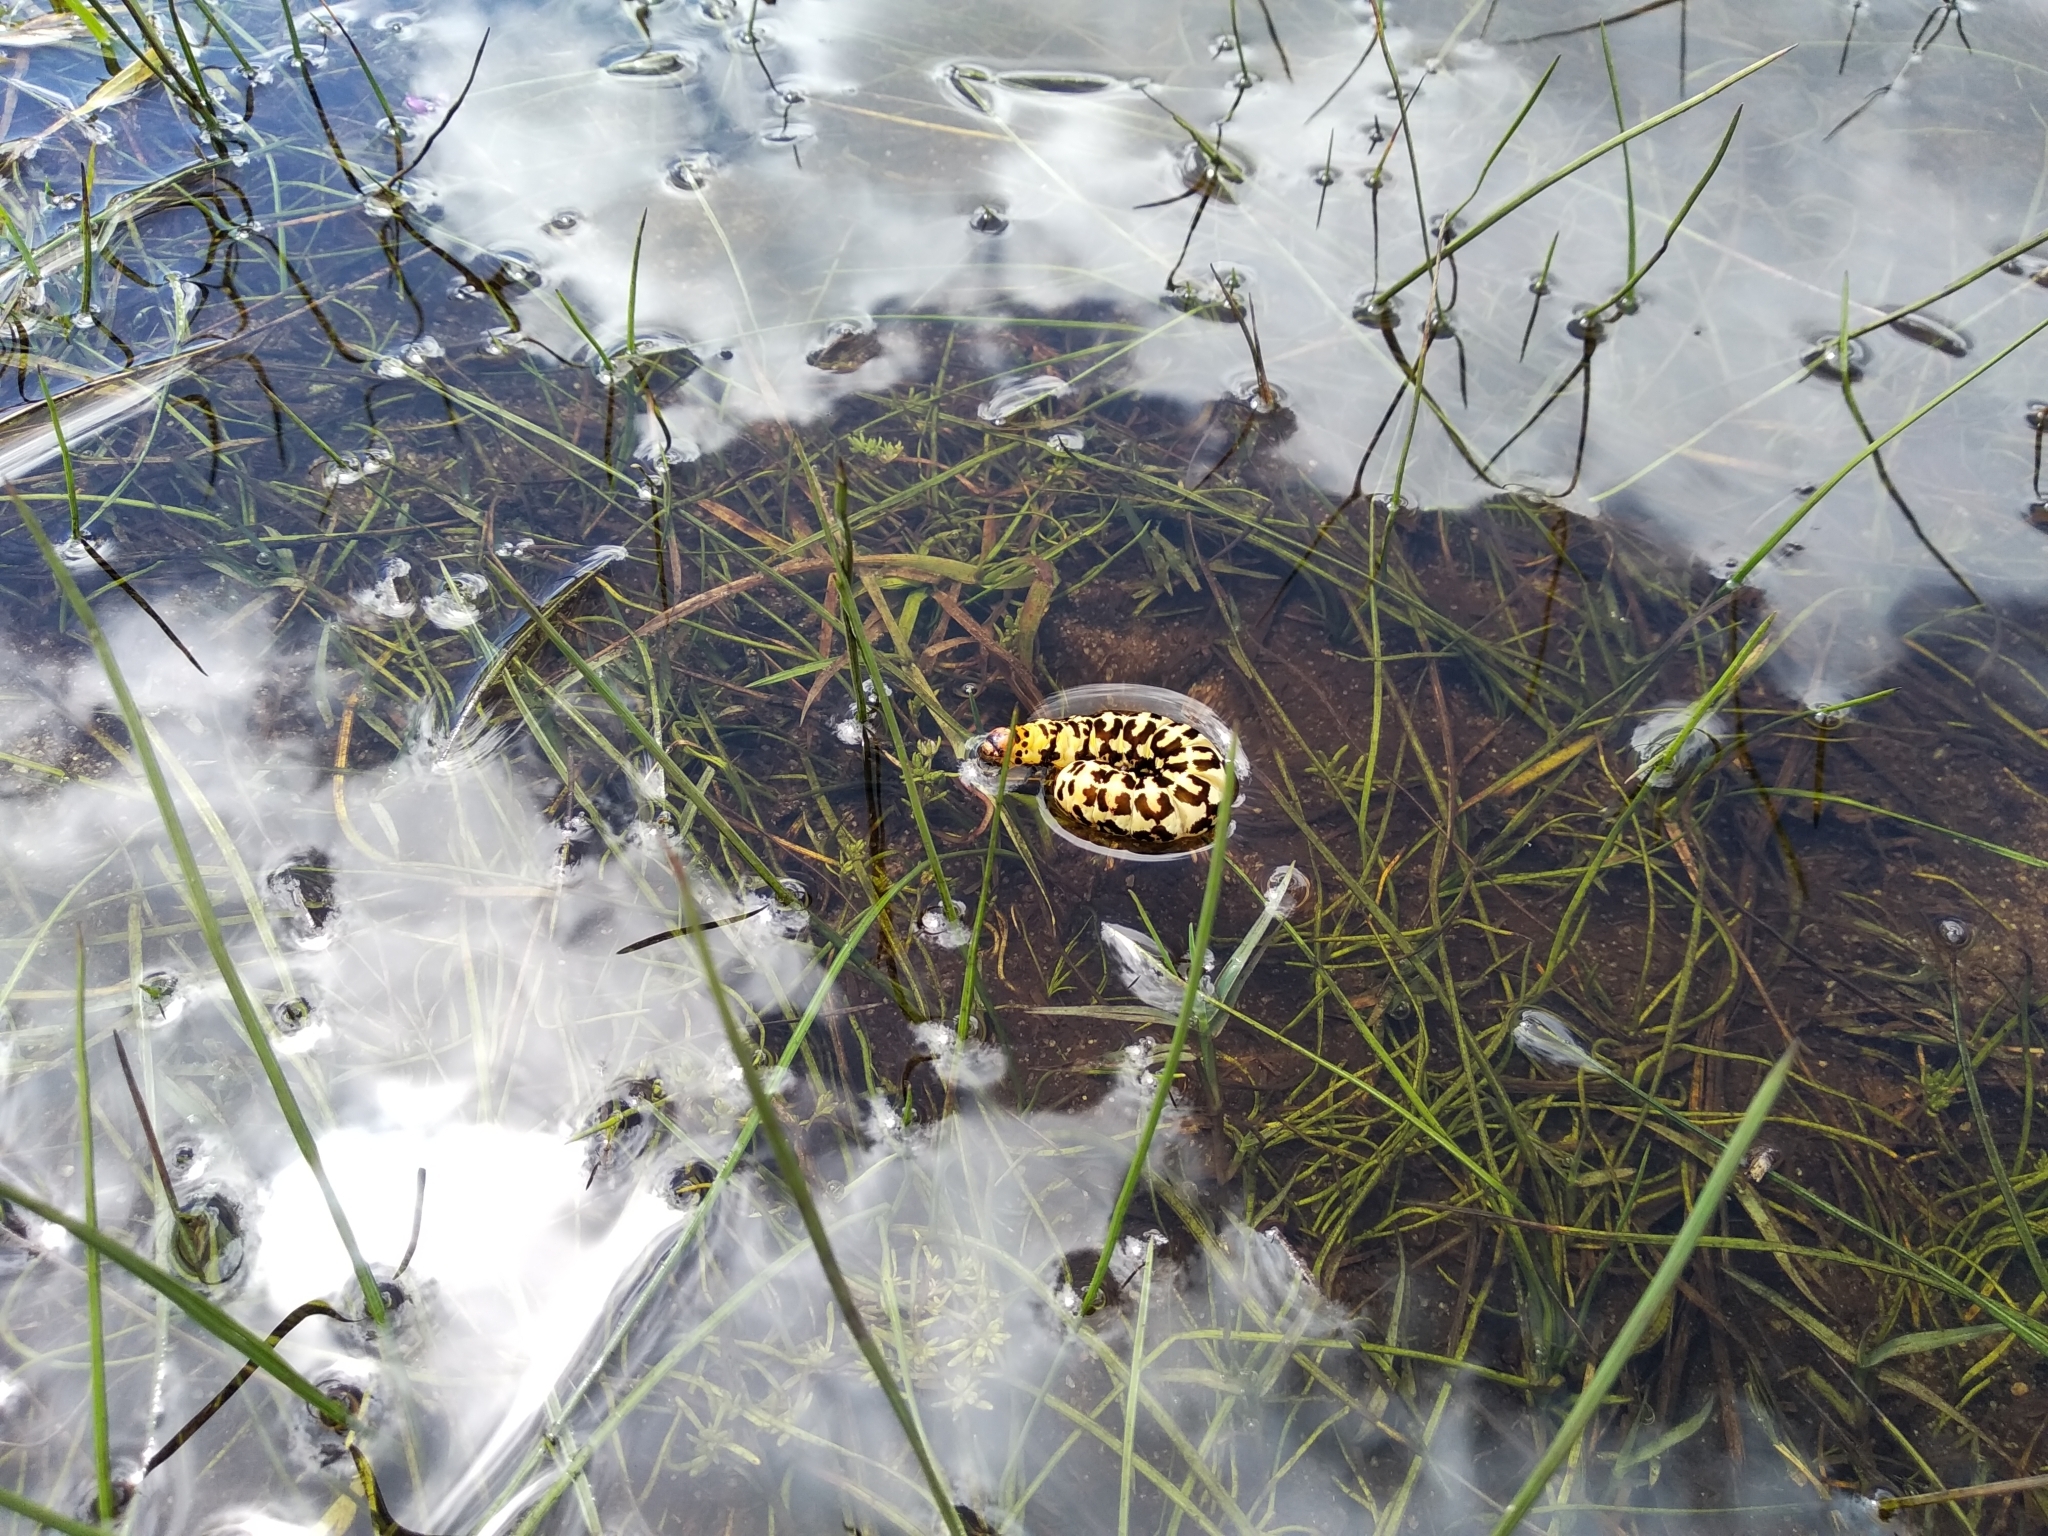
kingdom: Animalia
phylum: Arthropoda
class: Insecta
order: Lepidoptera
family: Noctuidae
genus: Diaphone
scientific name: Diaphone eumela
